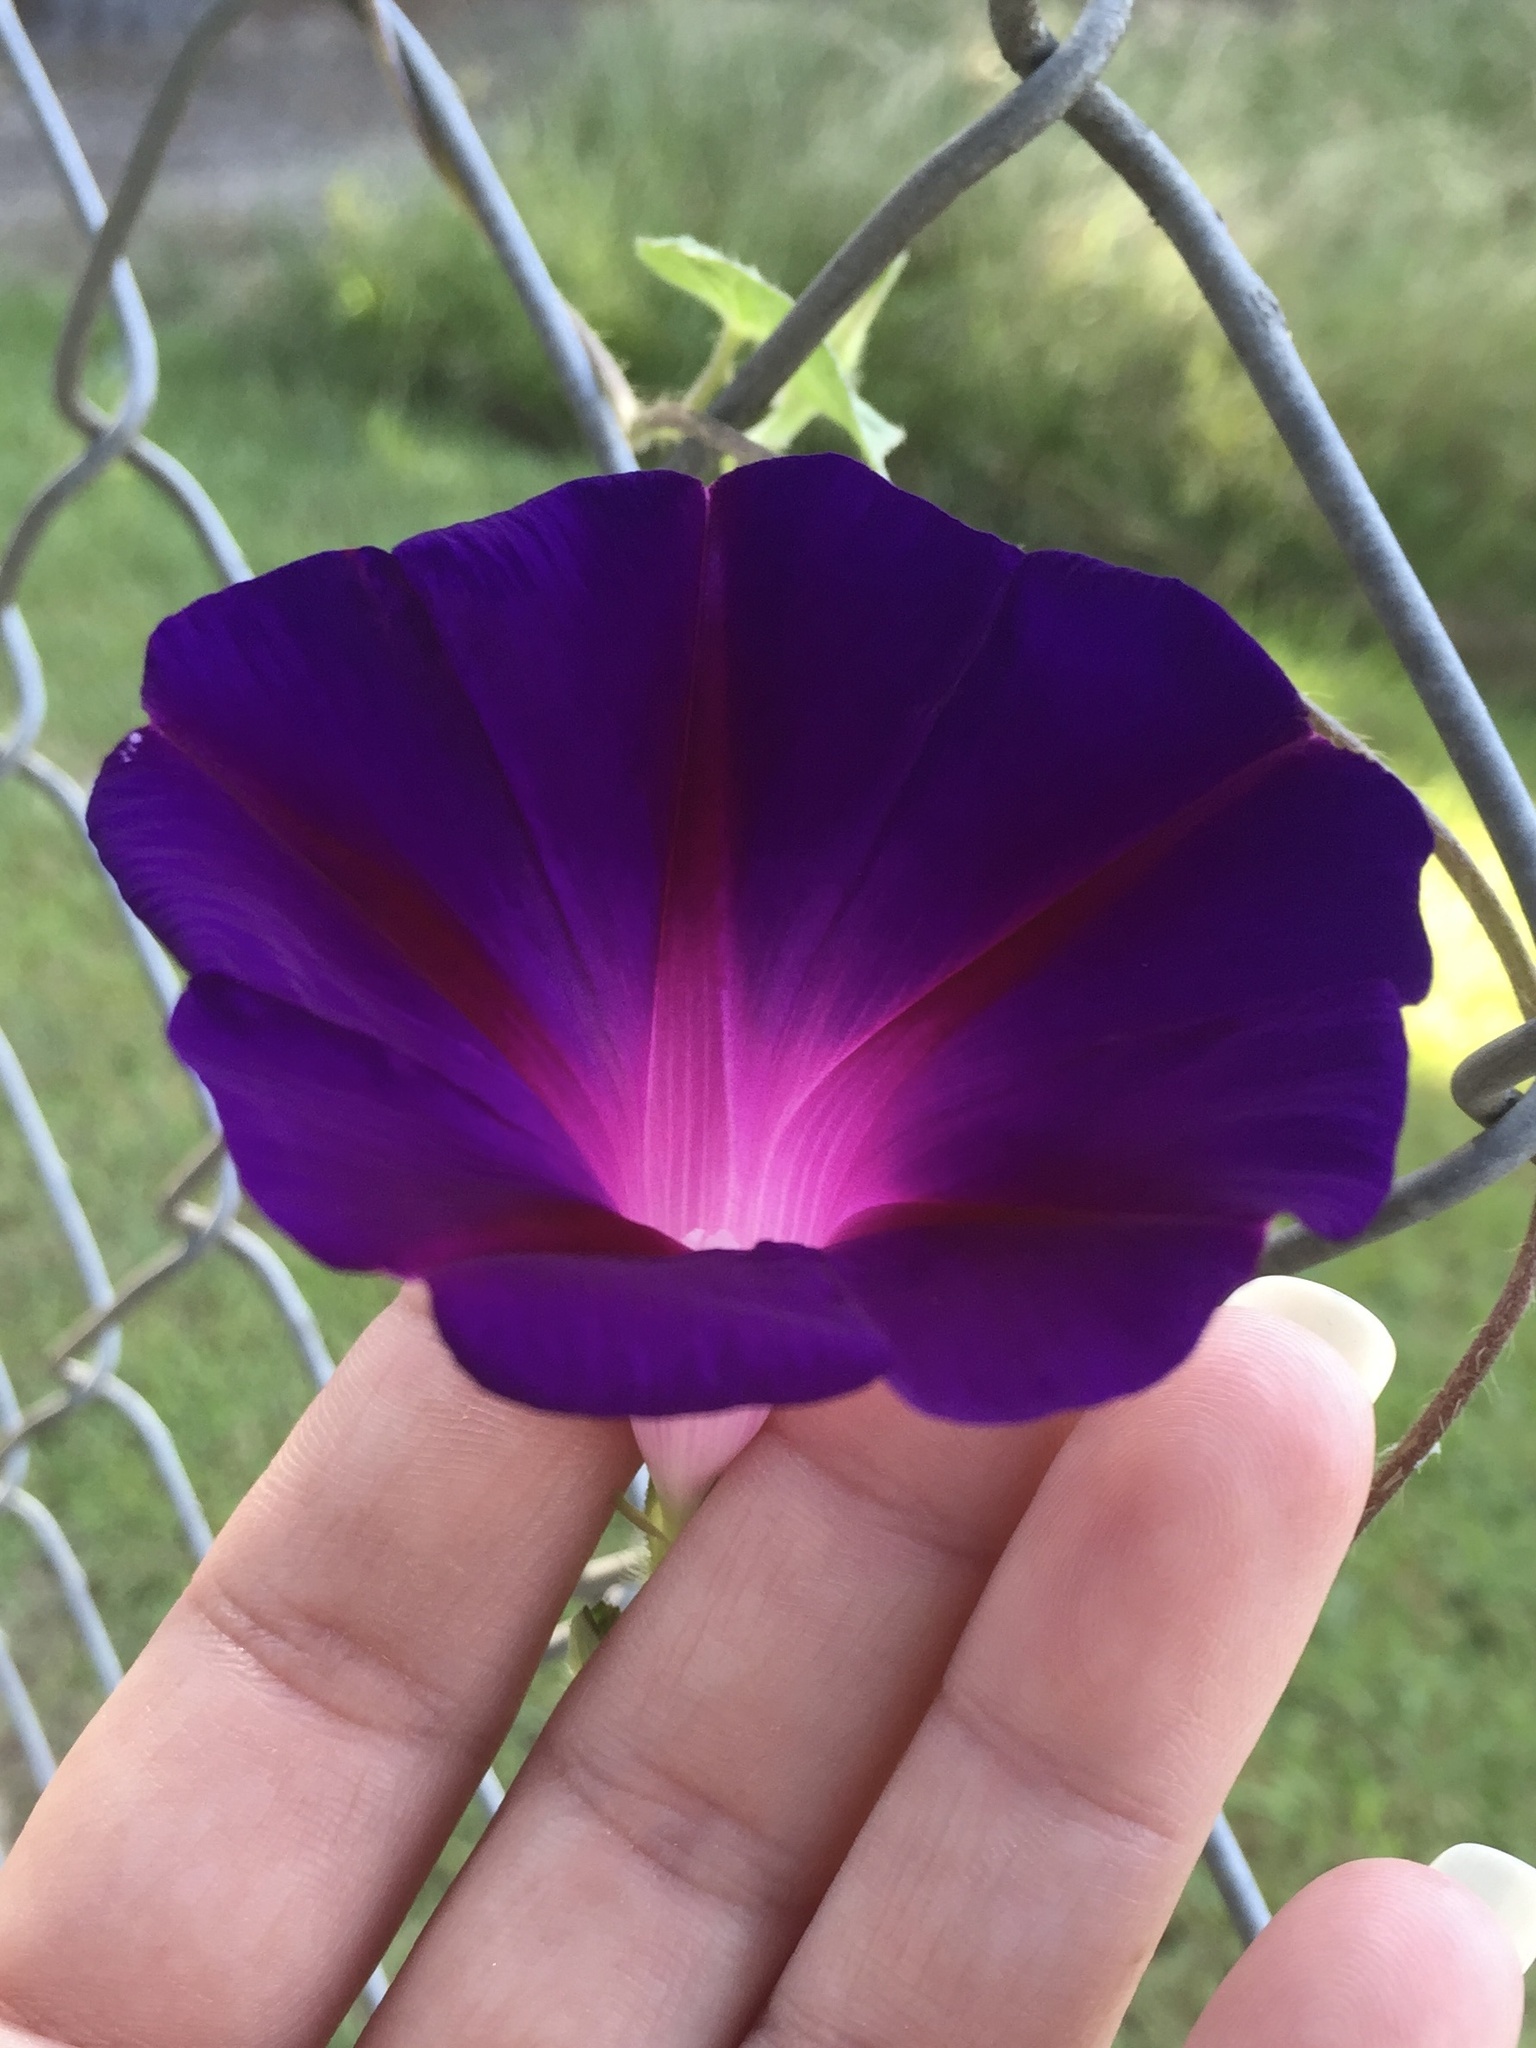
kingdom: Plantae
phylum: Tracheophyta
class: Magnoliopsida
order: Solanales
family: Convolvulaceae
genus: Ipomoea
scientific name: Ipomoea purpurea
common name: Common morning-glory
